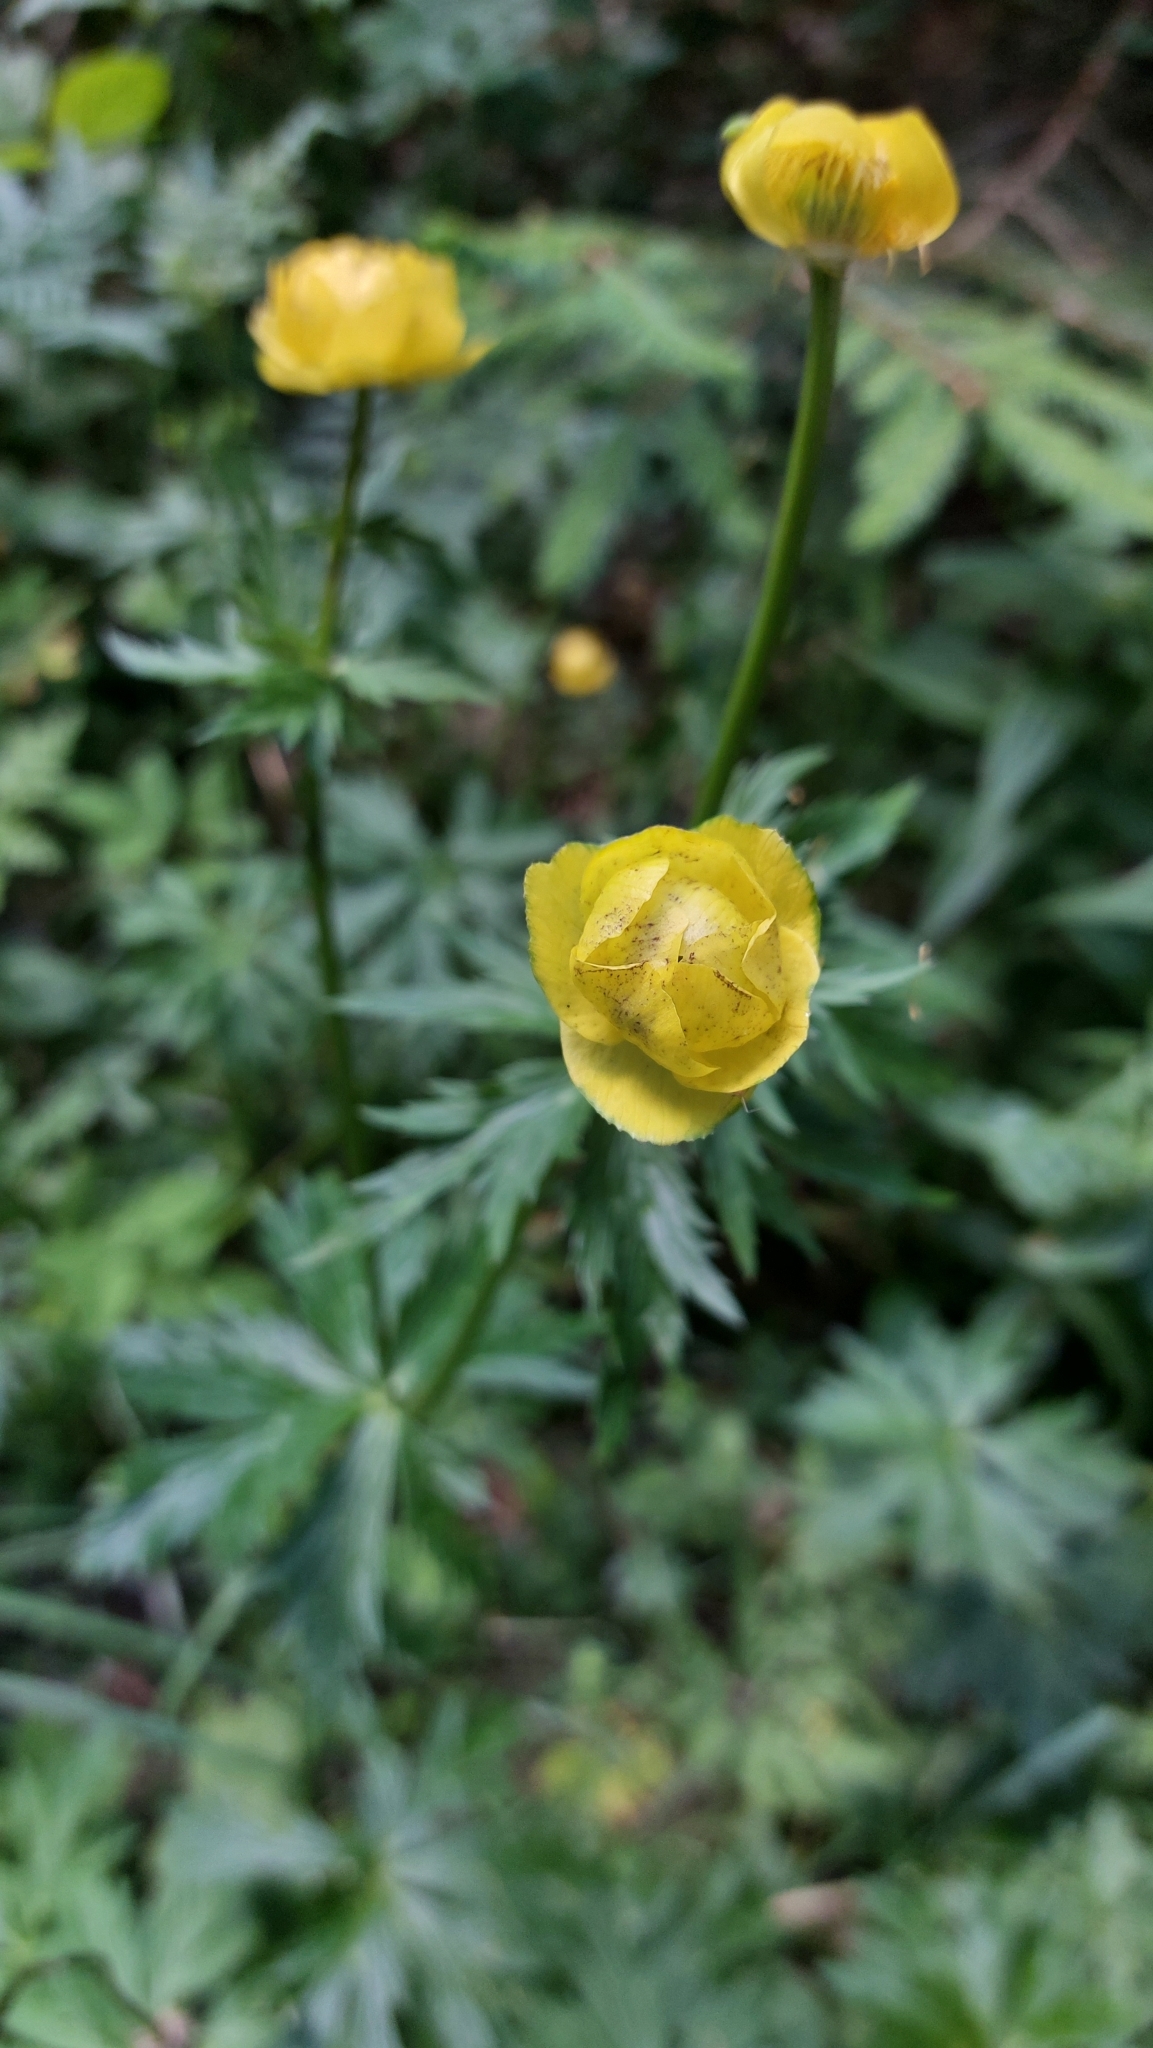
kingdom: Plantae
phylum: Tracheophyta
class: Magnoliopsida
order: Ranunculales
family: Ranunculaceae
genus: Trollius
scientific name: Trollius europaeus
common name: European globeflower
